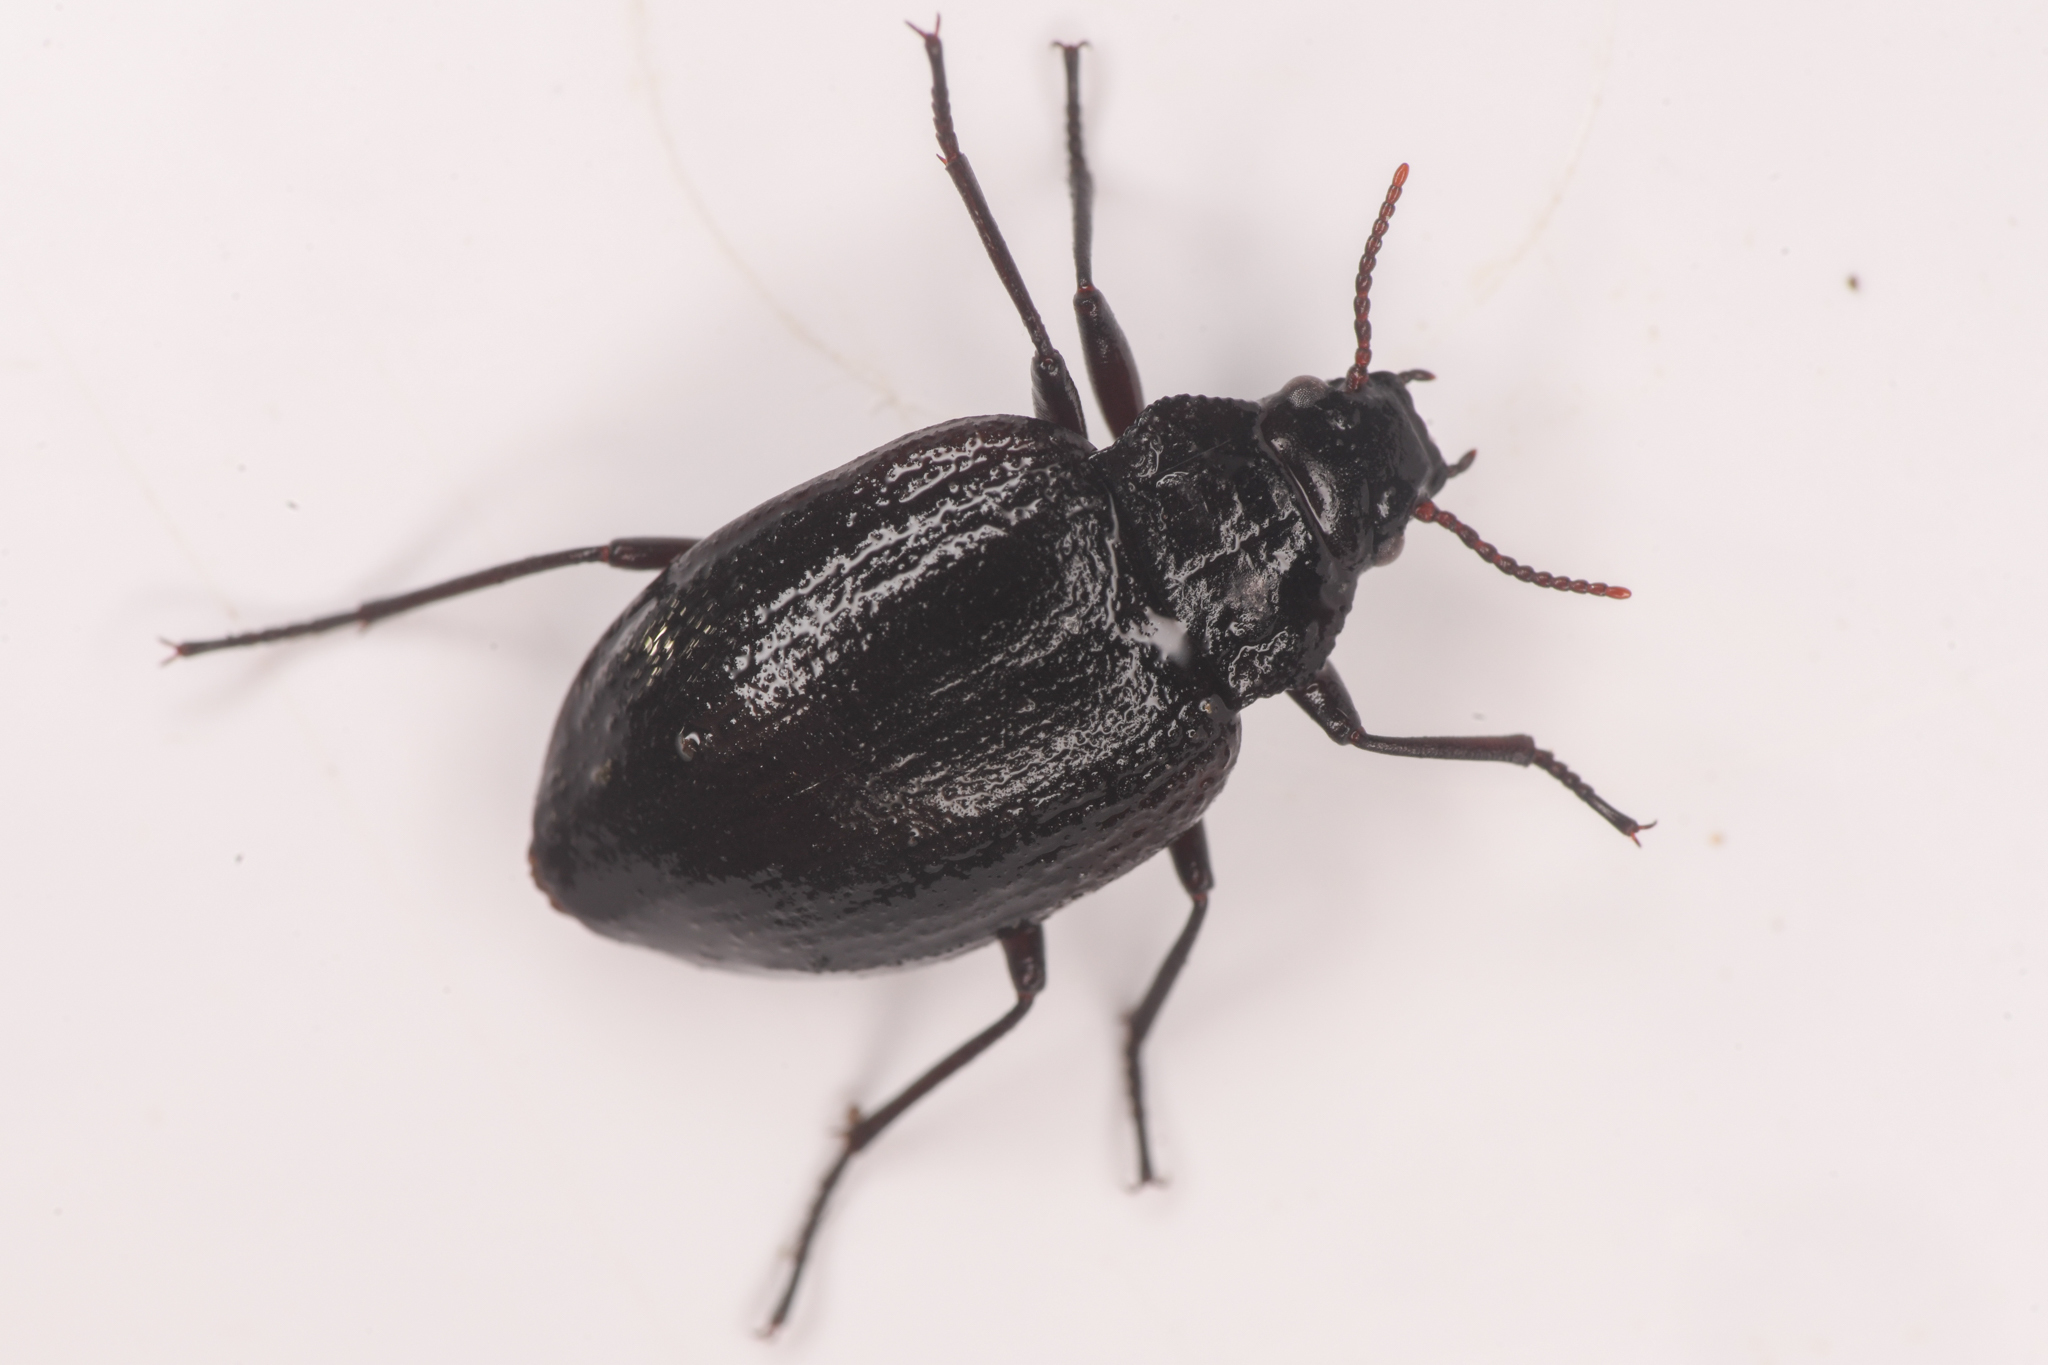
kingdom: Animalia
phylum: Arthropoda
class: Insecta
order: Coleoptera
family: Amphizoidae
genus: Amphizoa
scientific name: Amphizoa insolens
